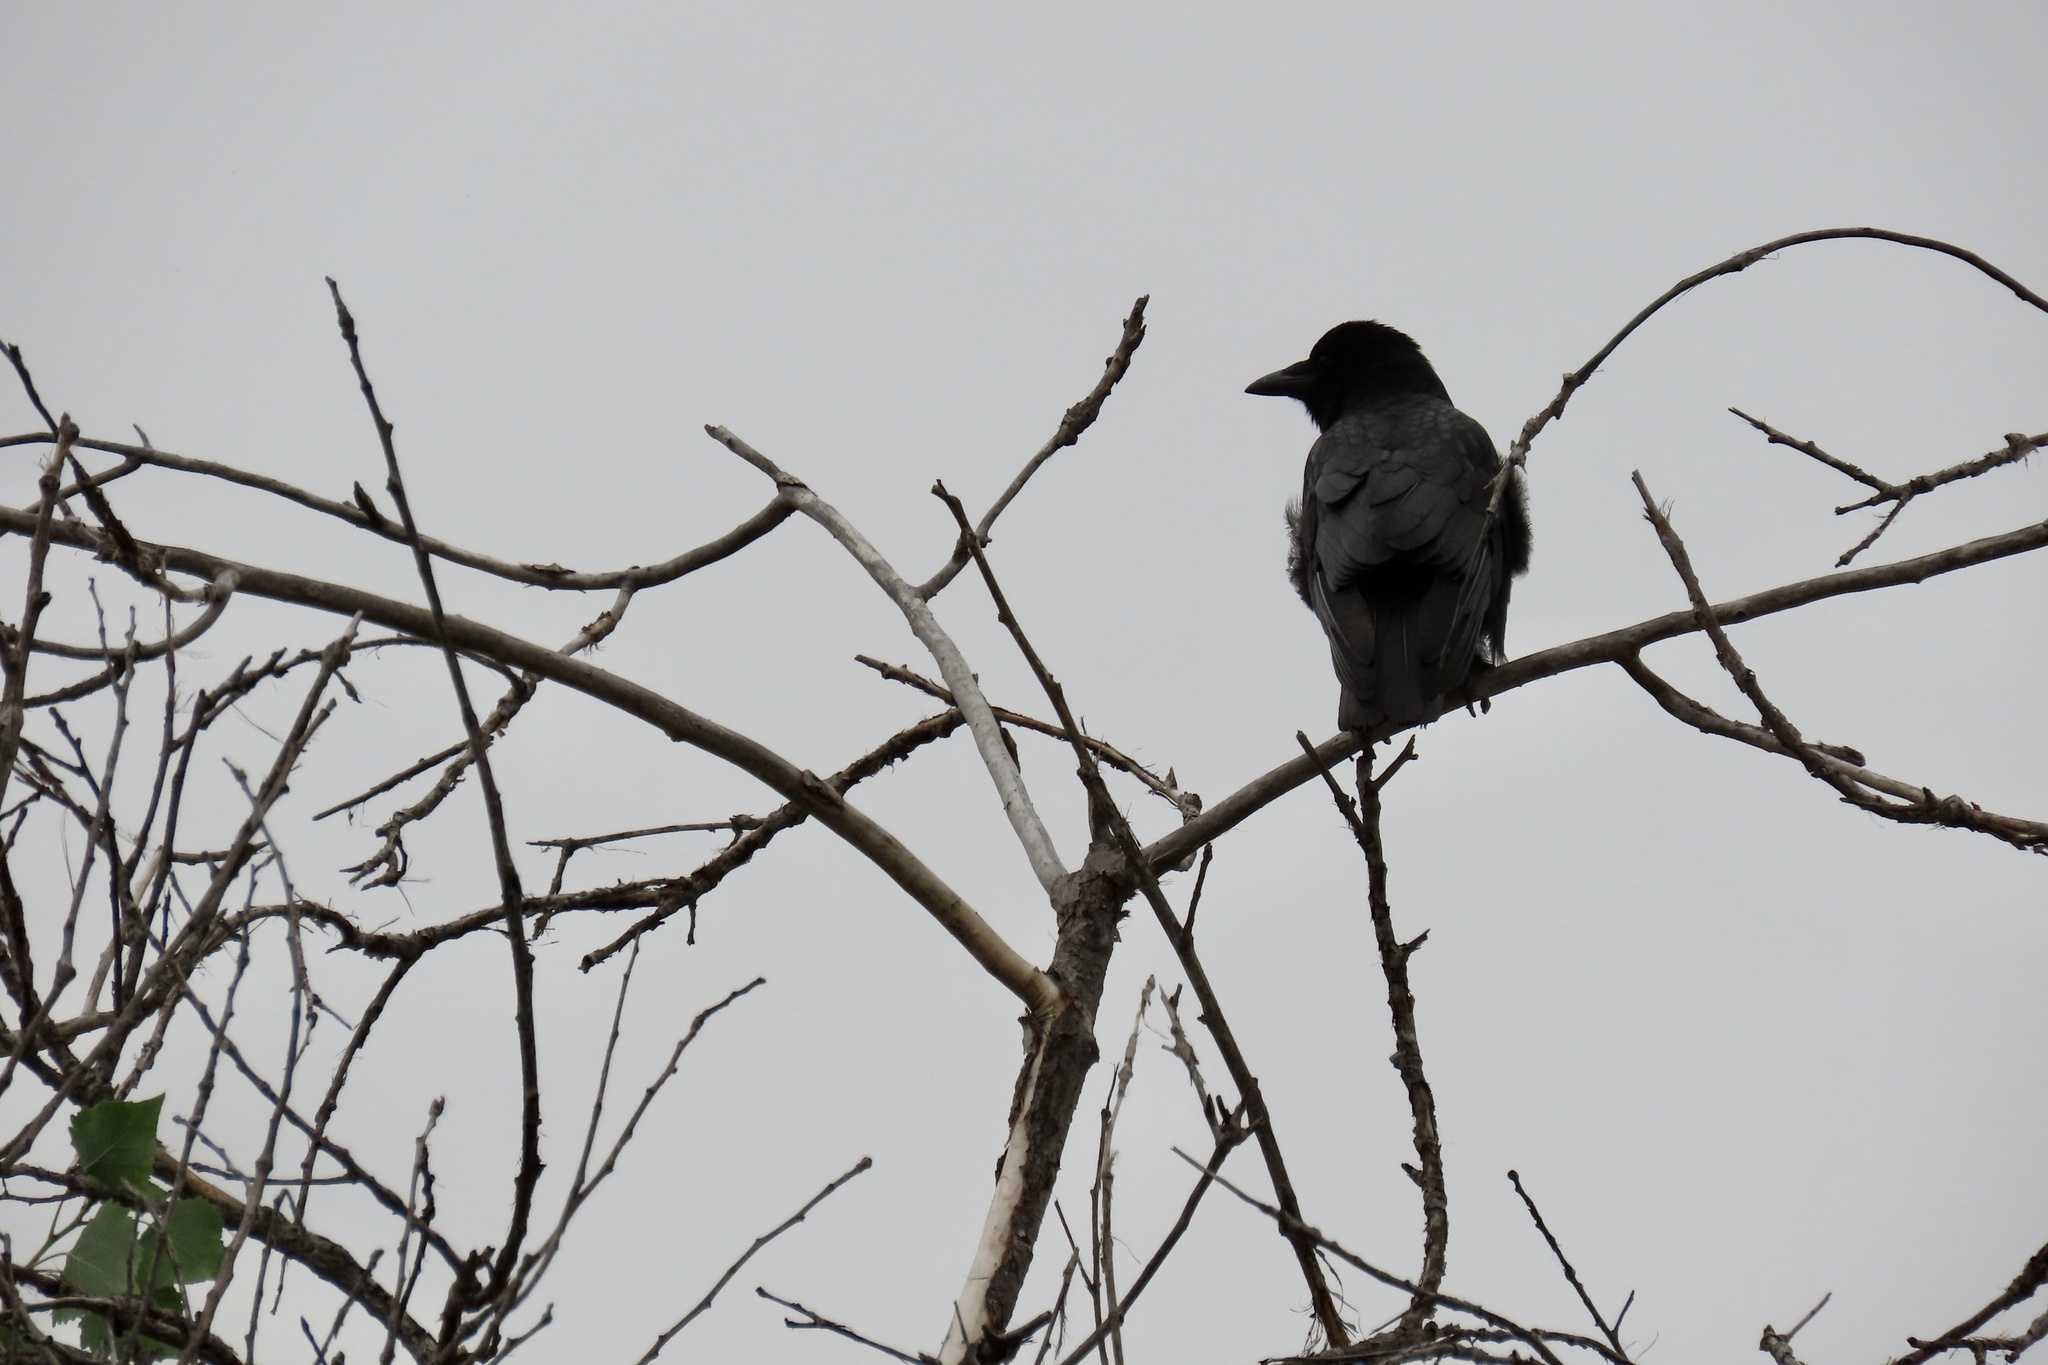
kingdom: Animalia
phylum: Chordata
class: Aves
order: Passeriformes
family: Corvidae
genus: Corvus
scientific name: Corvus brachyrhynchos
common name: American crow
